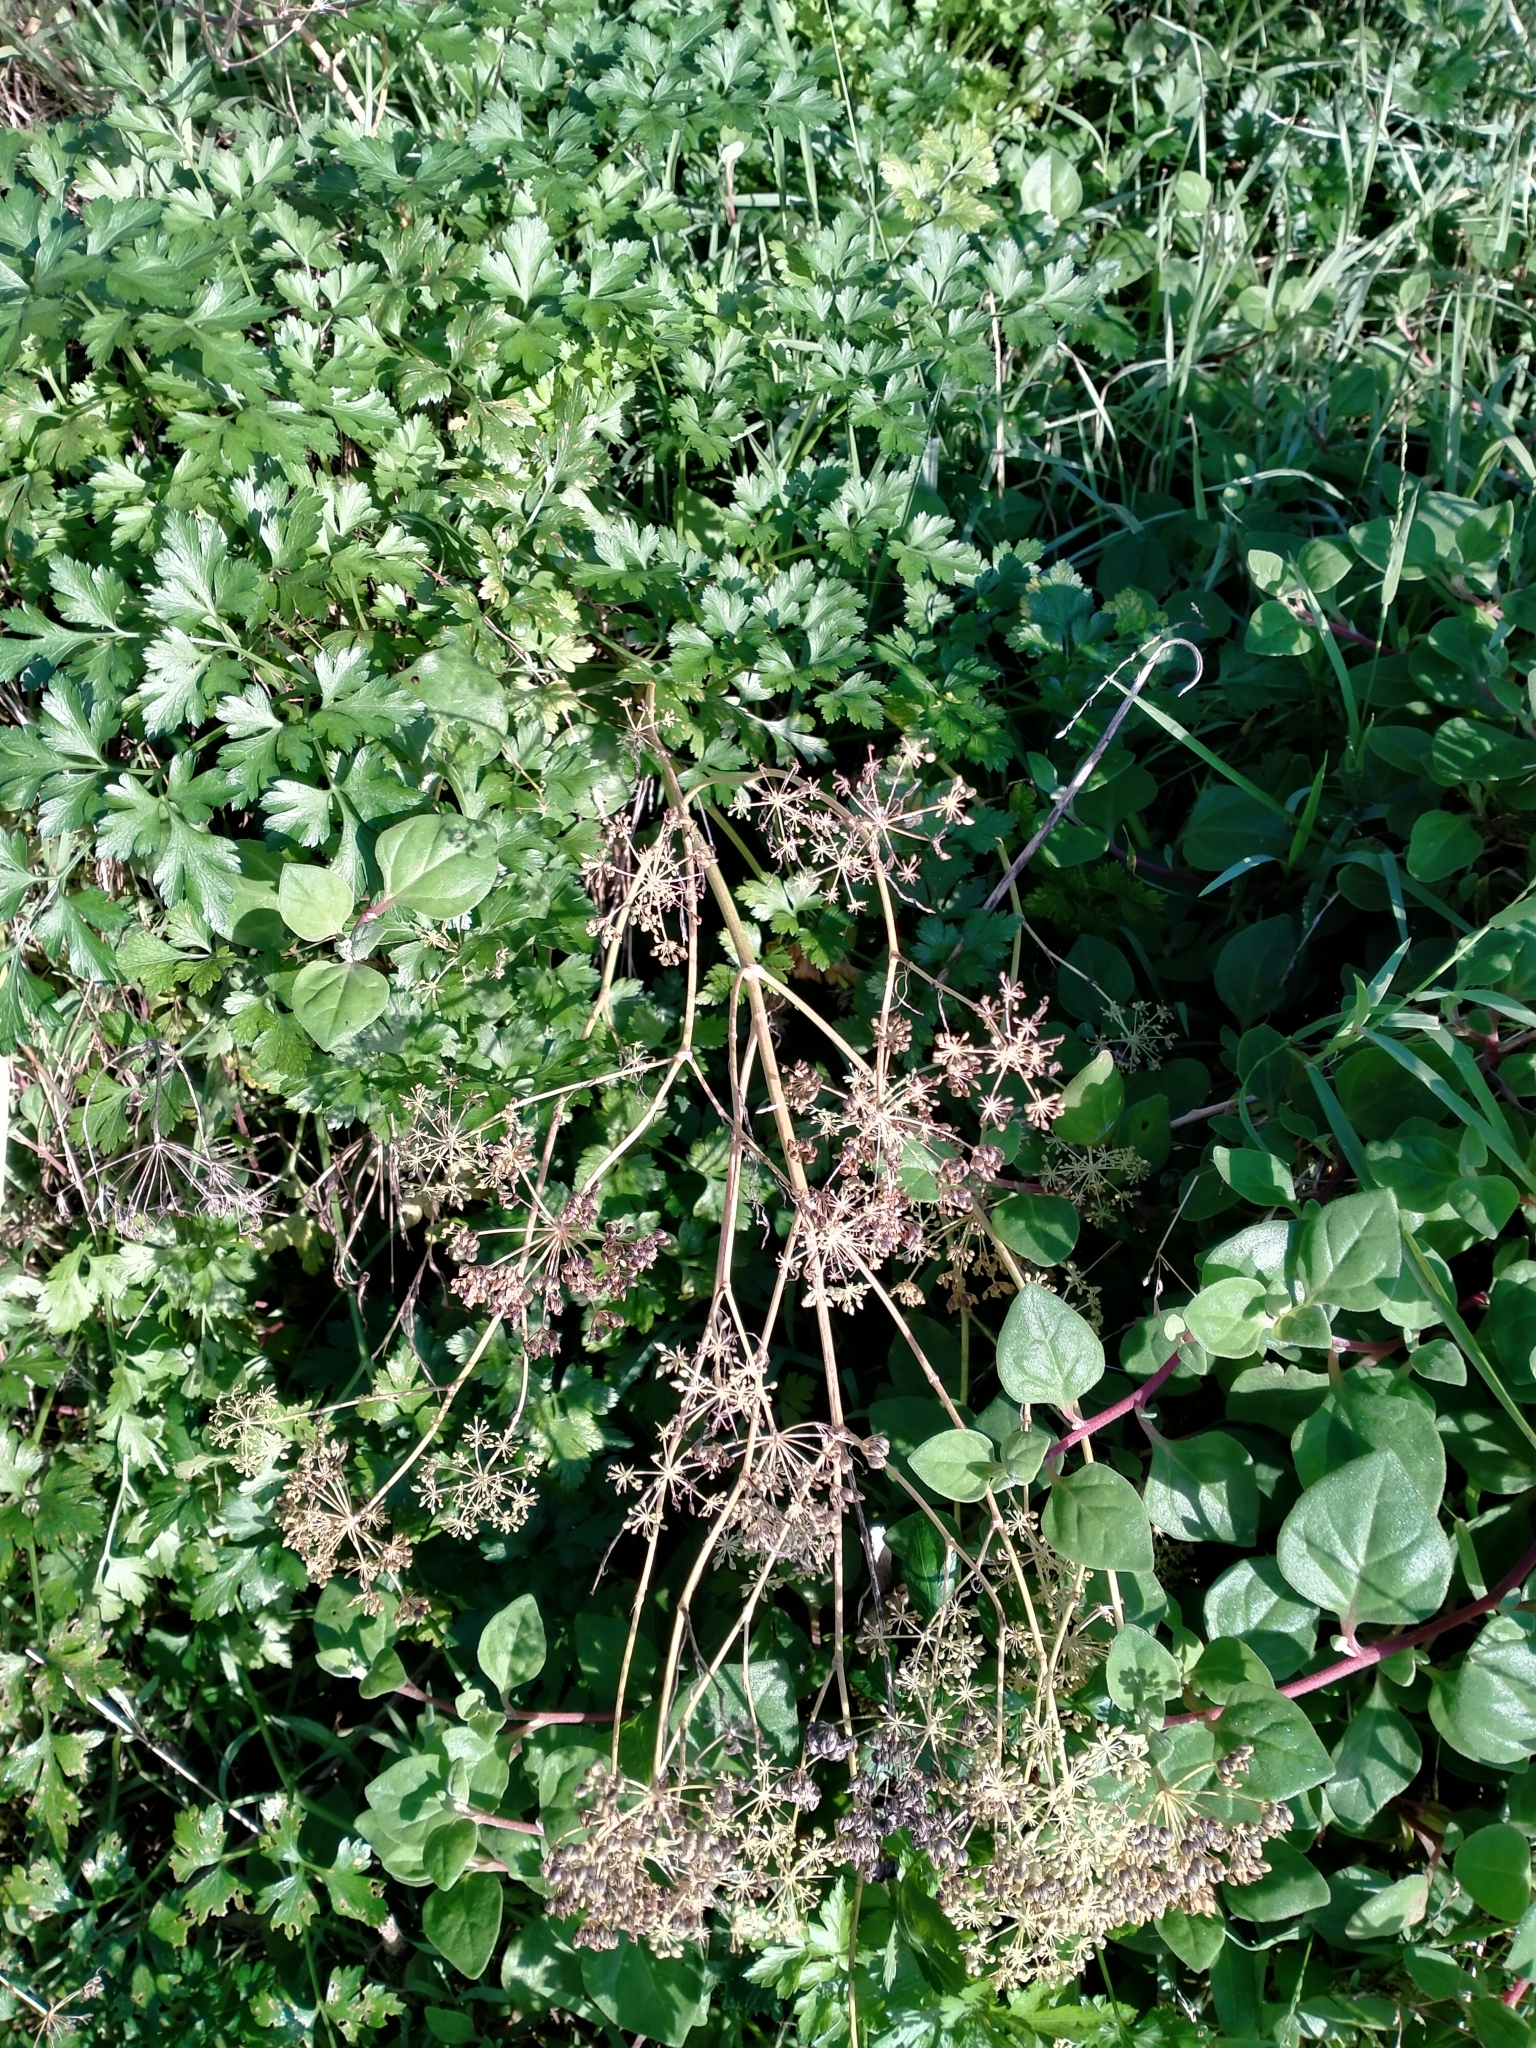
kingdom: Plantae
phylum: Tracheophyta
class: Magnoliopsida
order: Apiales
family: Apiaceae
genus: Petroselinum
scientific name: Petroselinum crispum
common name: Parsley
